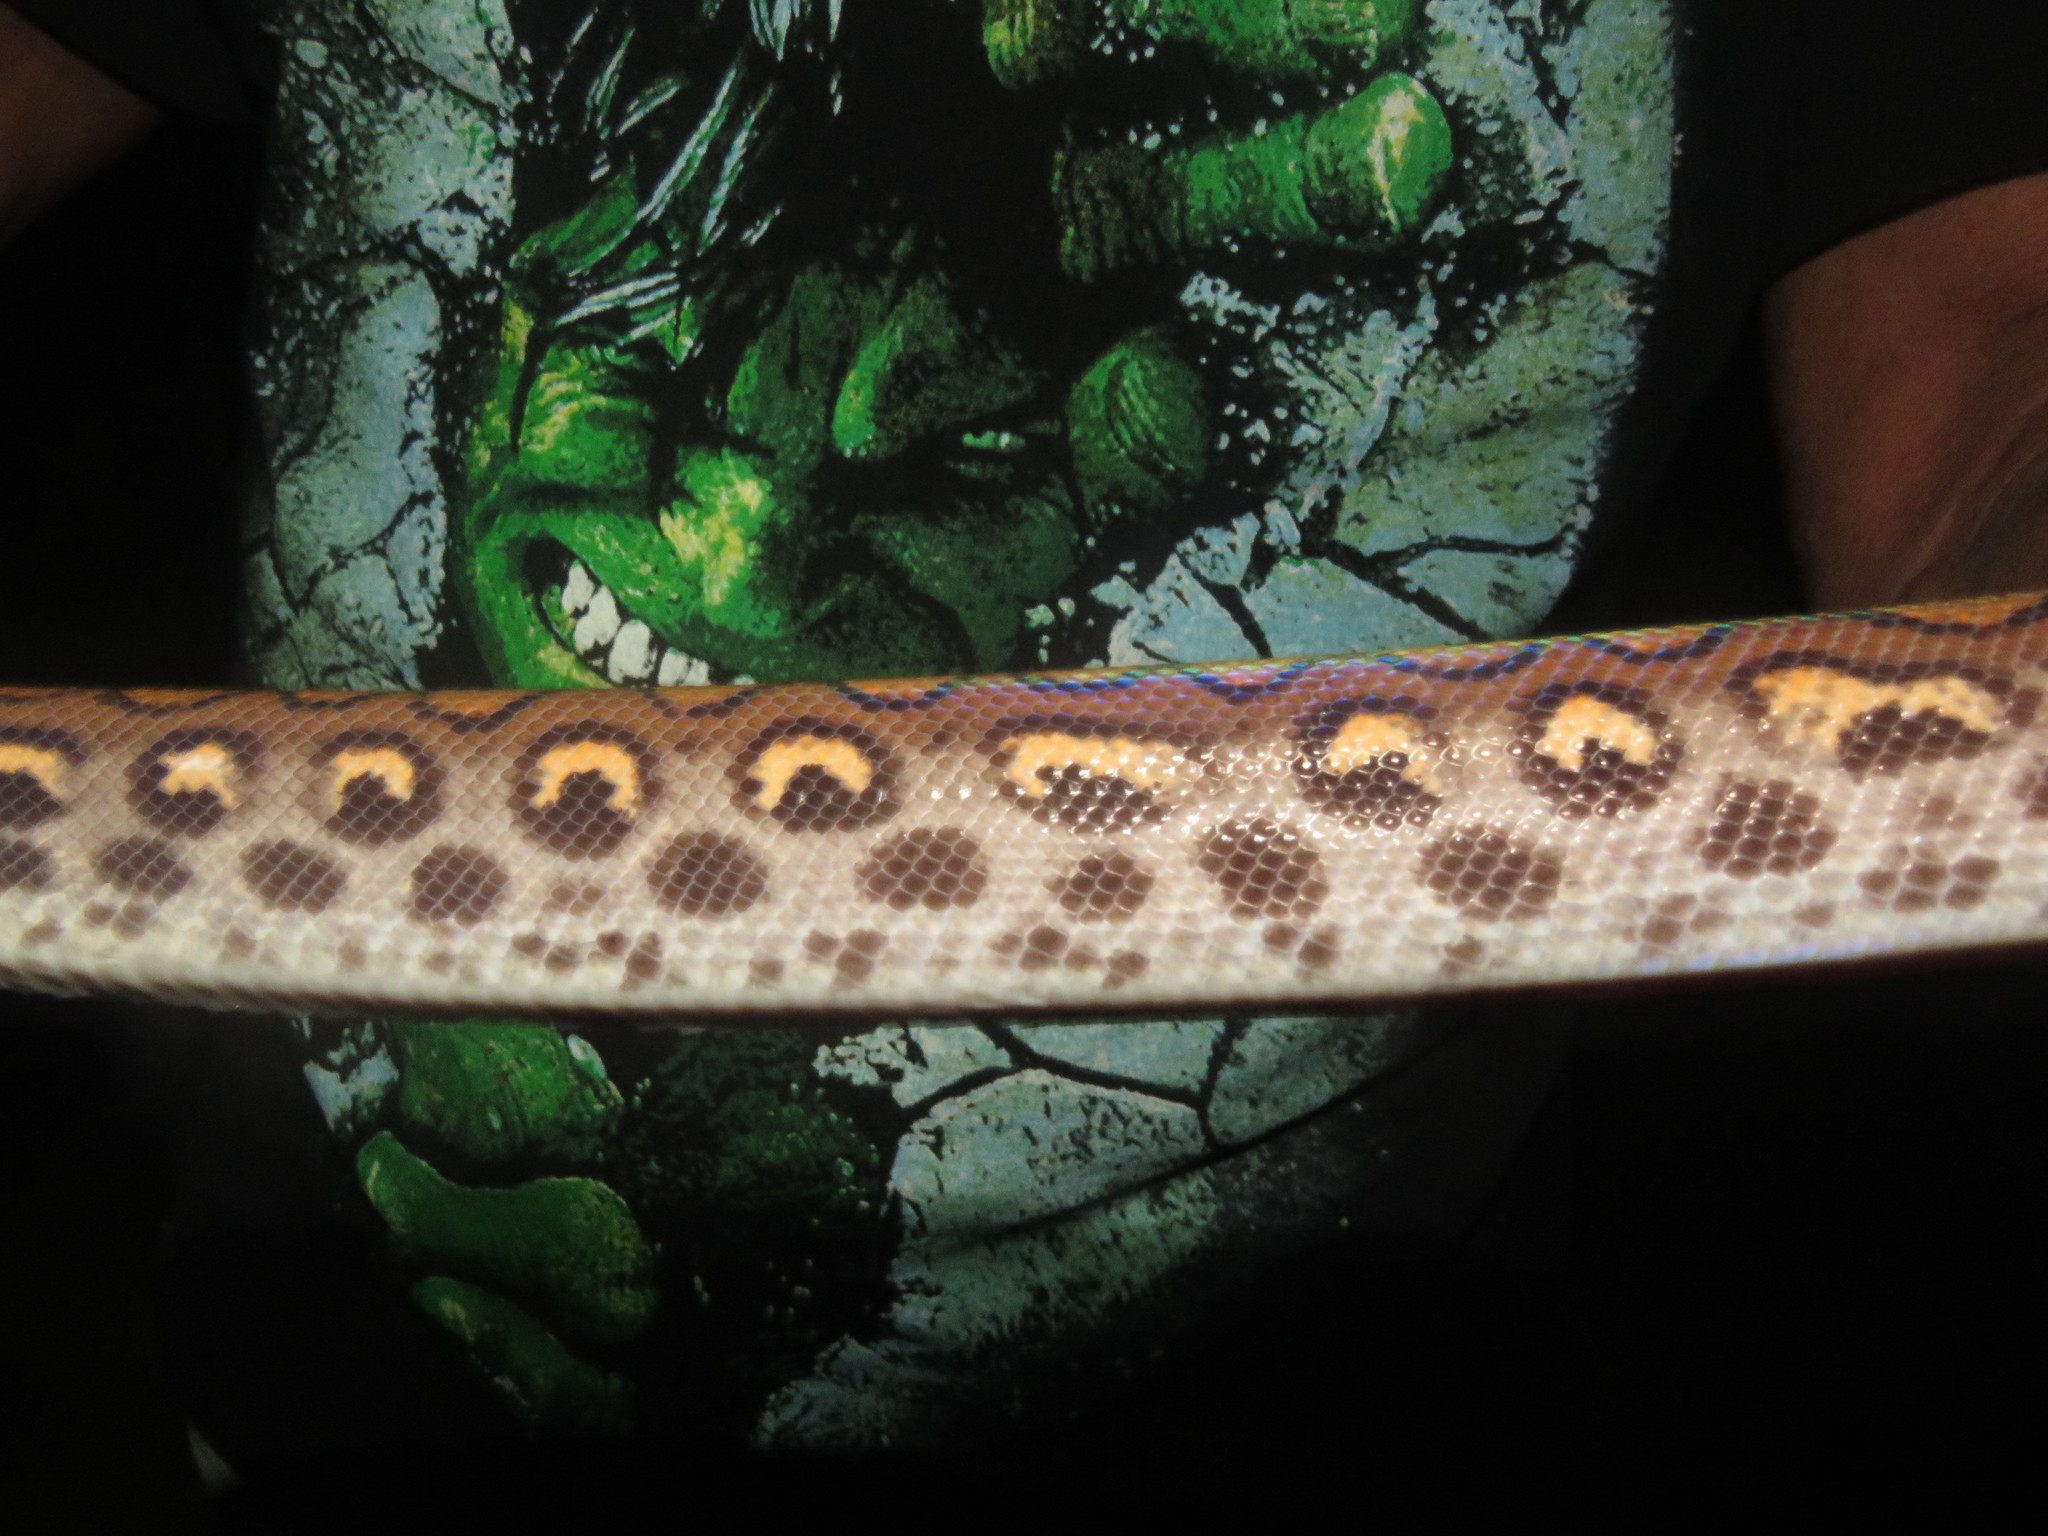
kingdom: Animalia
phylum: Chordata
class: Squamata
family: Boidae
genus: Epicrates
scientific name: Epicrates cenchria
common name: Rainbow boa
